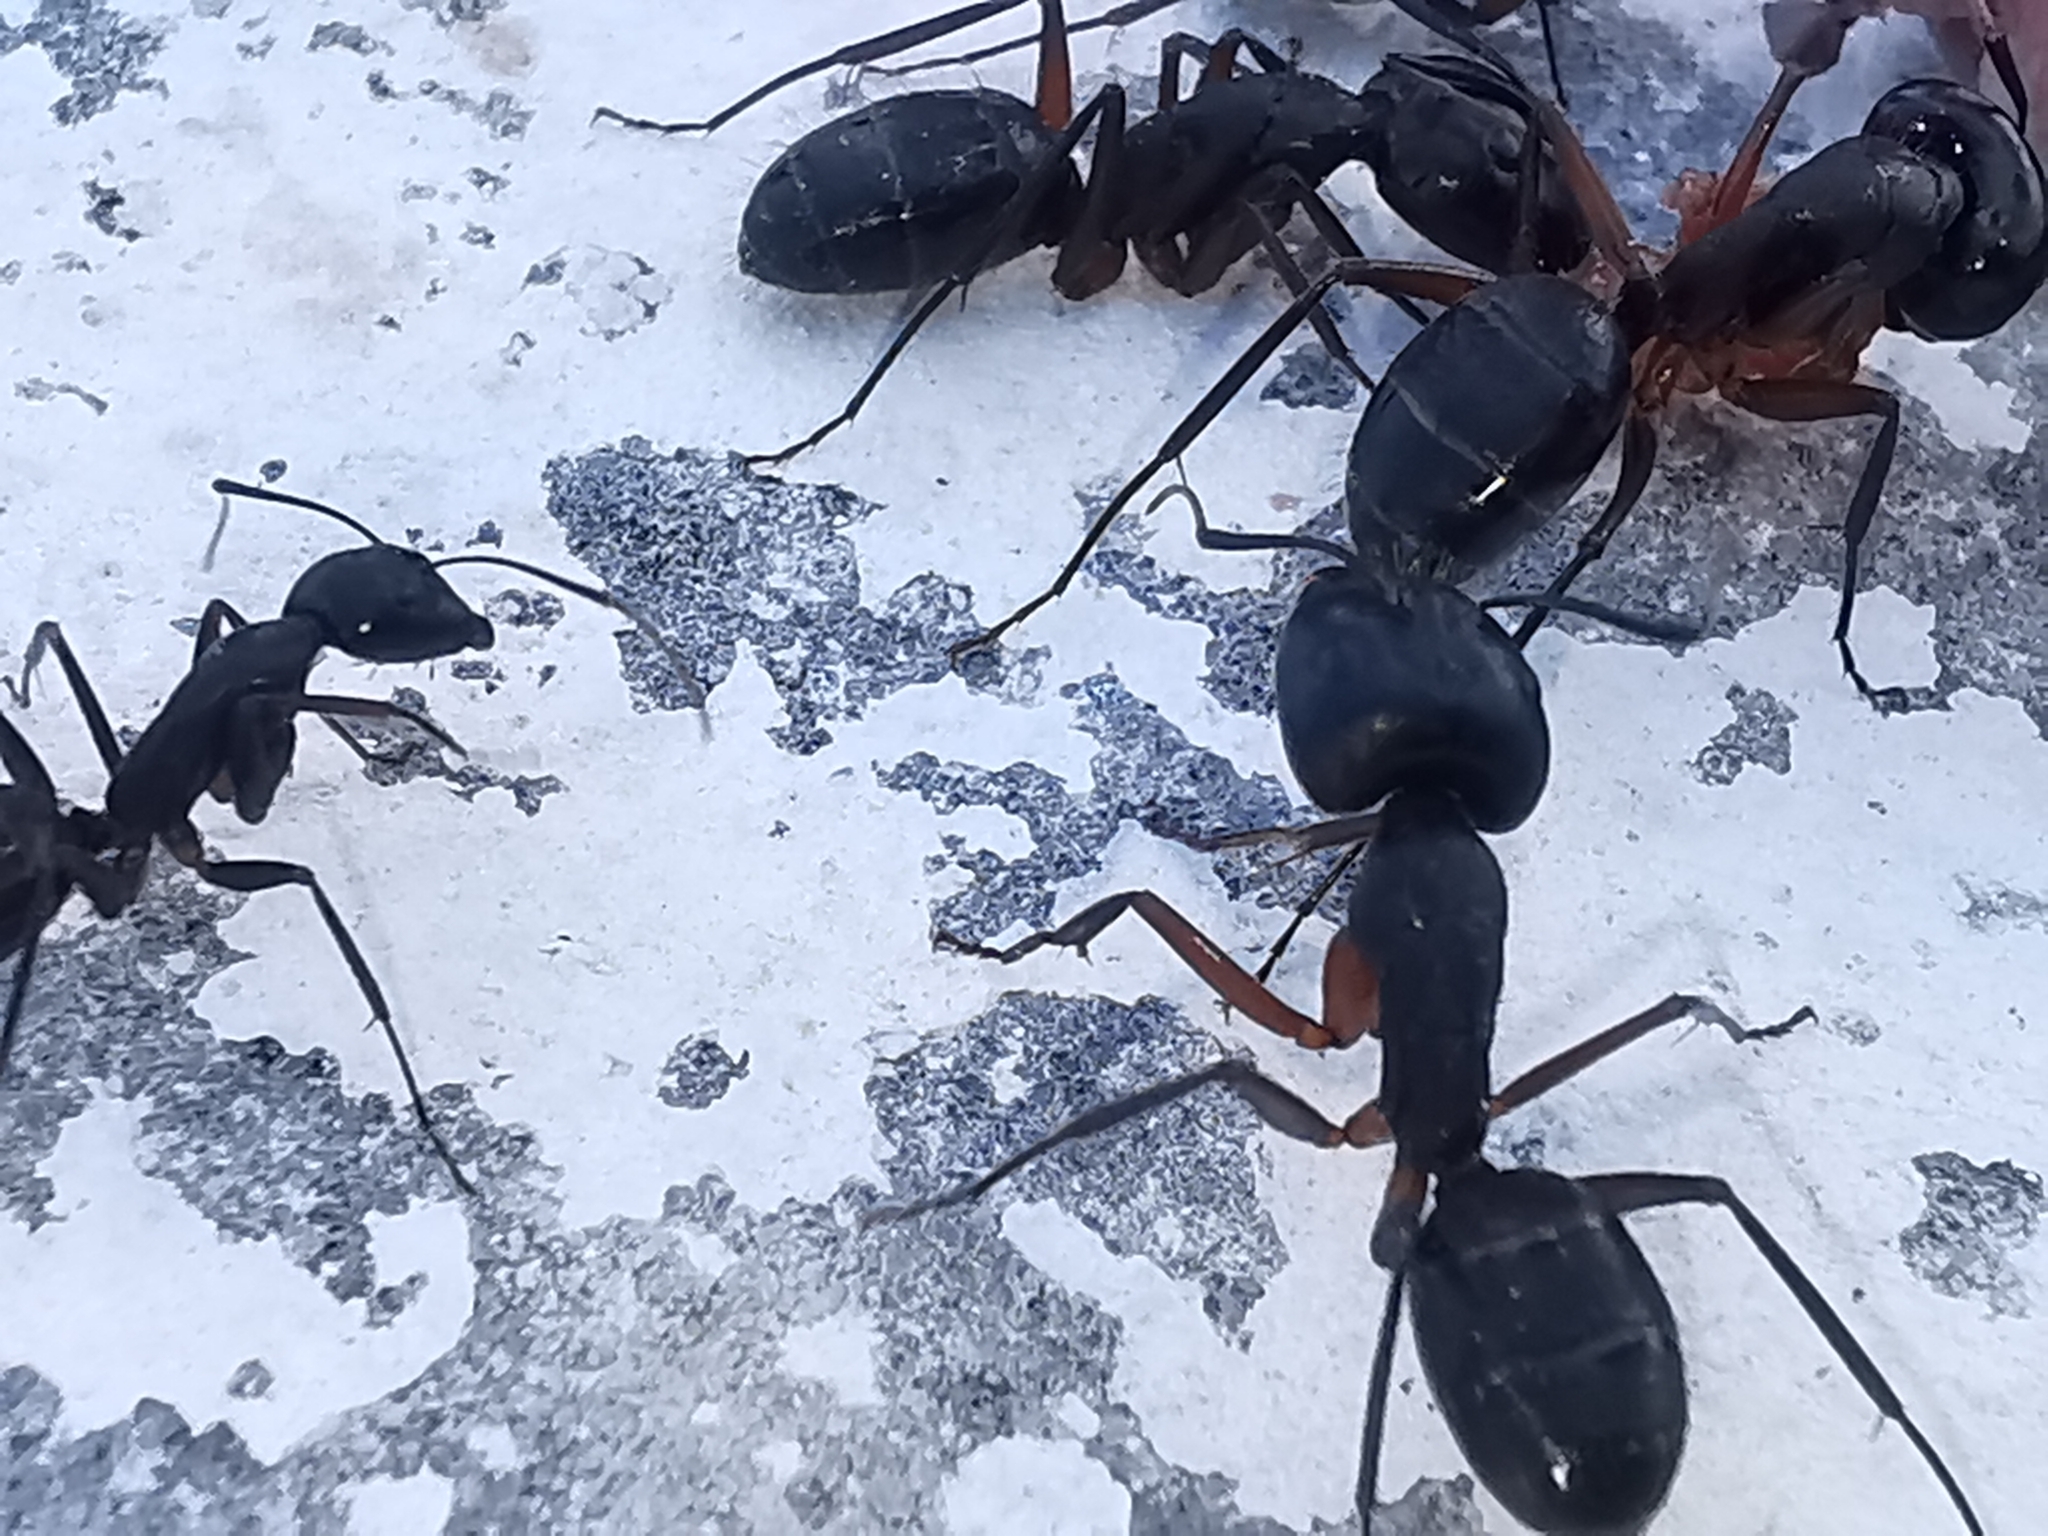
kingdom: Animalia
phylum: Arthropoda
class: Insecta
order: Hymenoptera
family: Formicidae
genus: Camponotus
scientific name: Camponotus ionius
